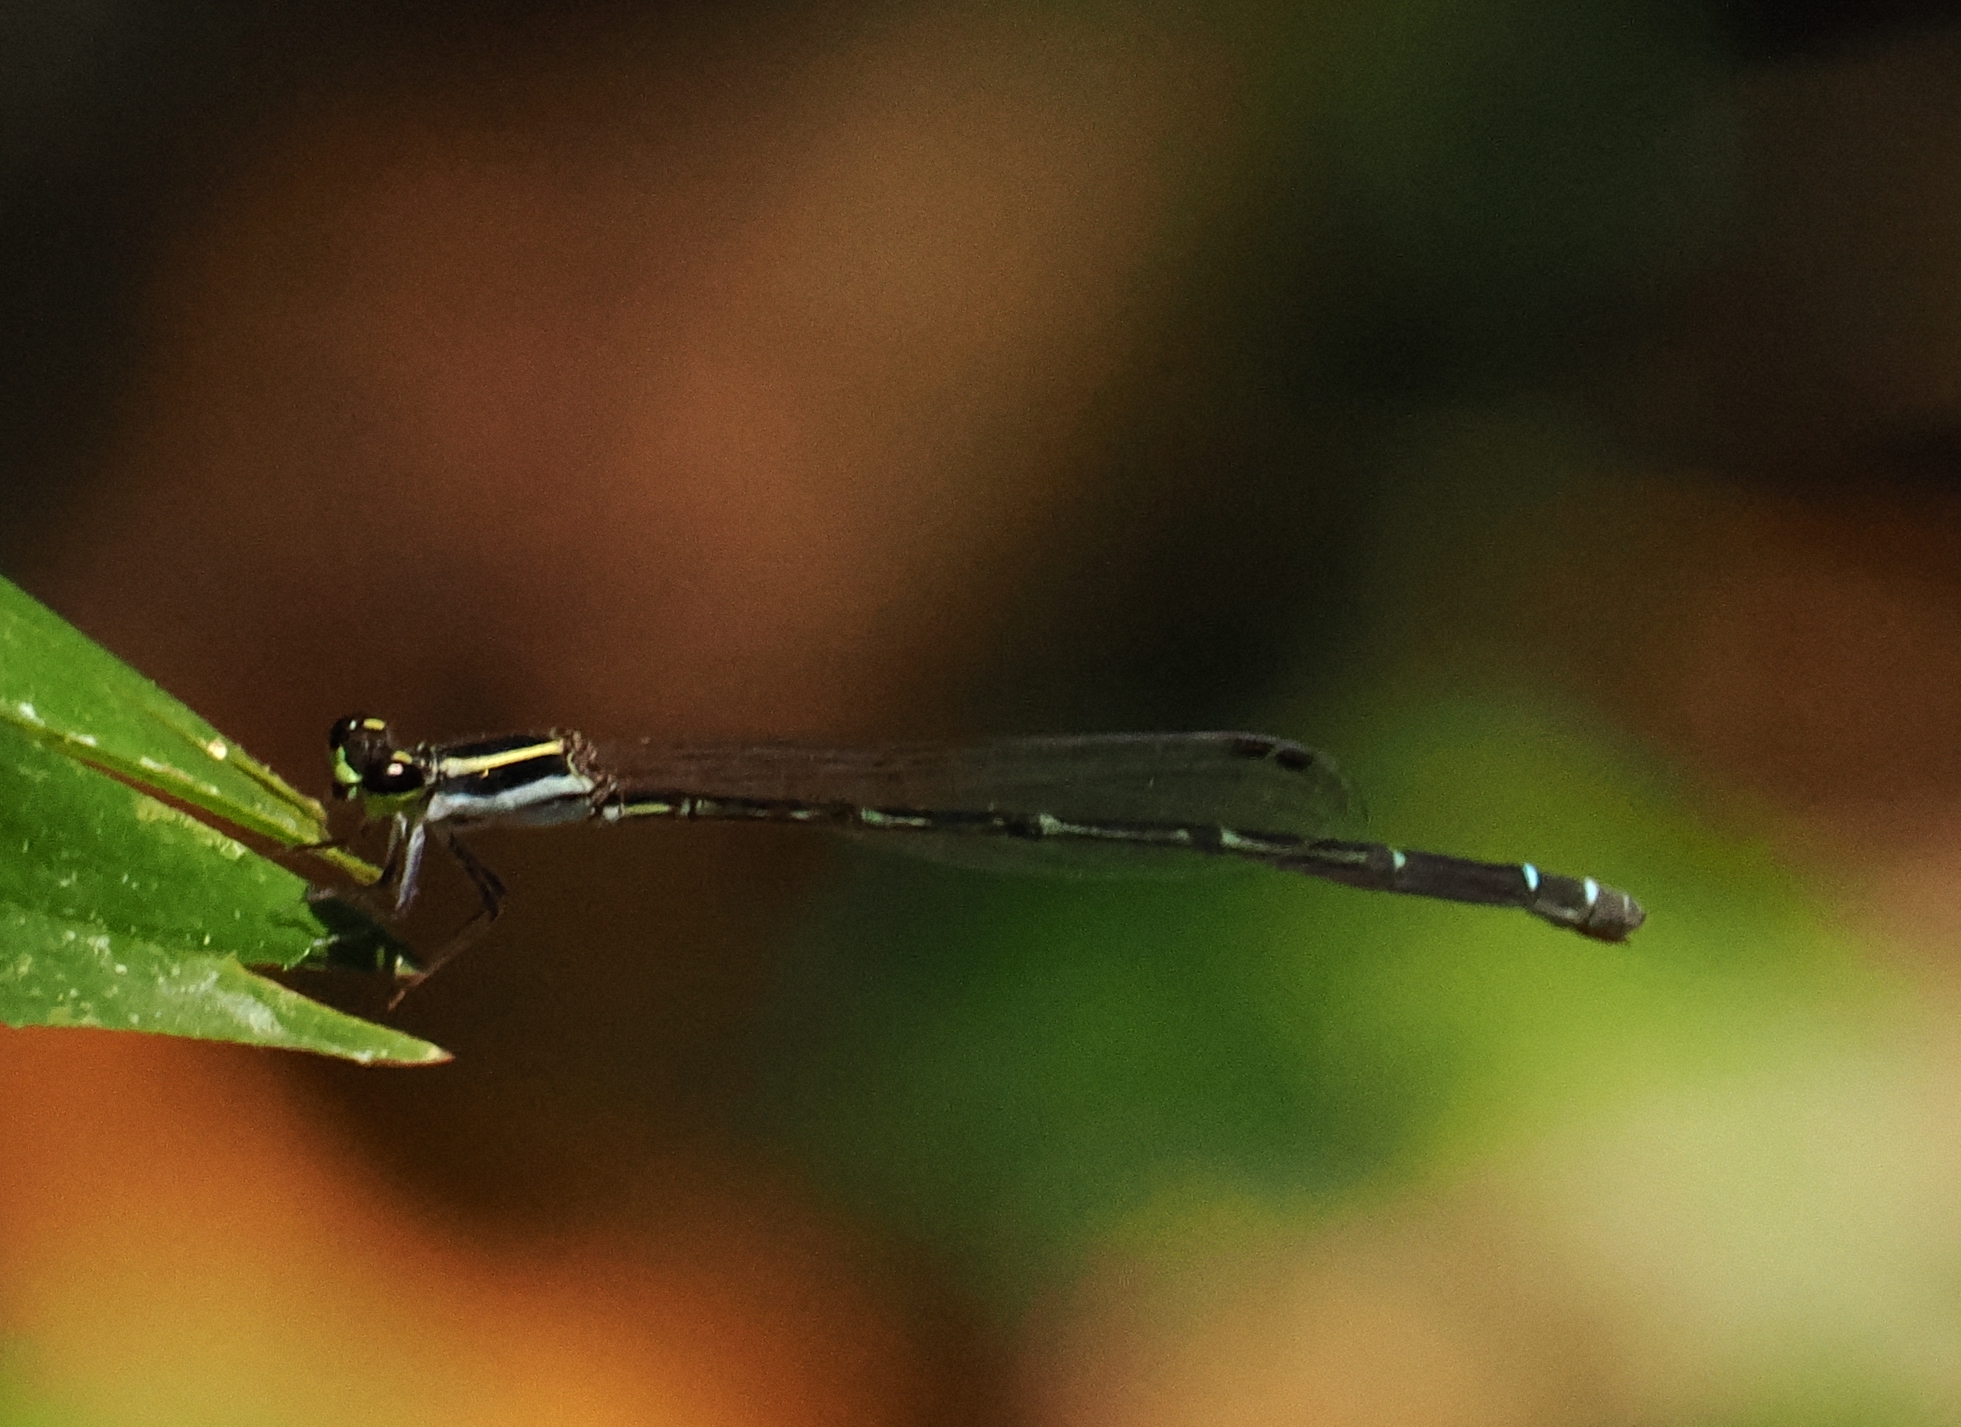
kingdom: Animalia
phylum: Arthropoda
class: Insecta
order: Odonata
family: Coenagrionidae
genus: Mortonagrion
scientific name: Mortonagrion aborense
